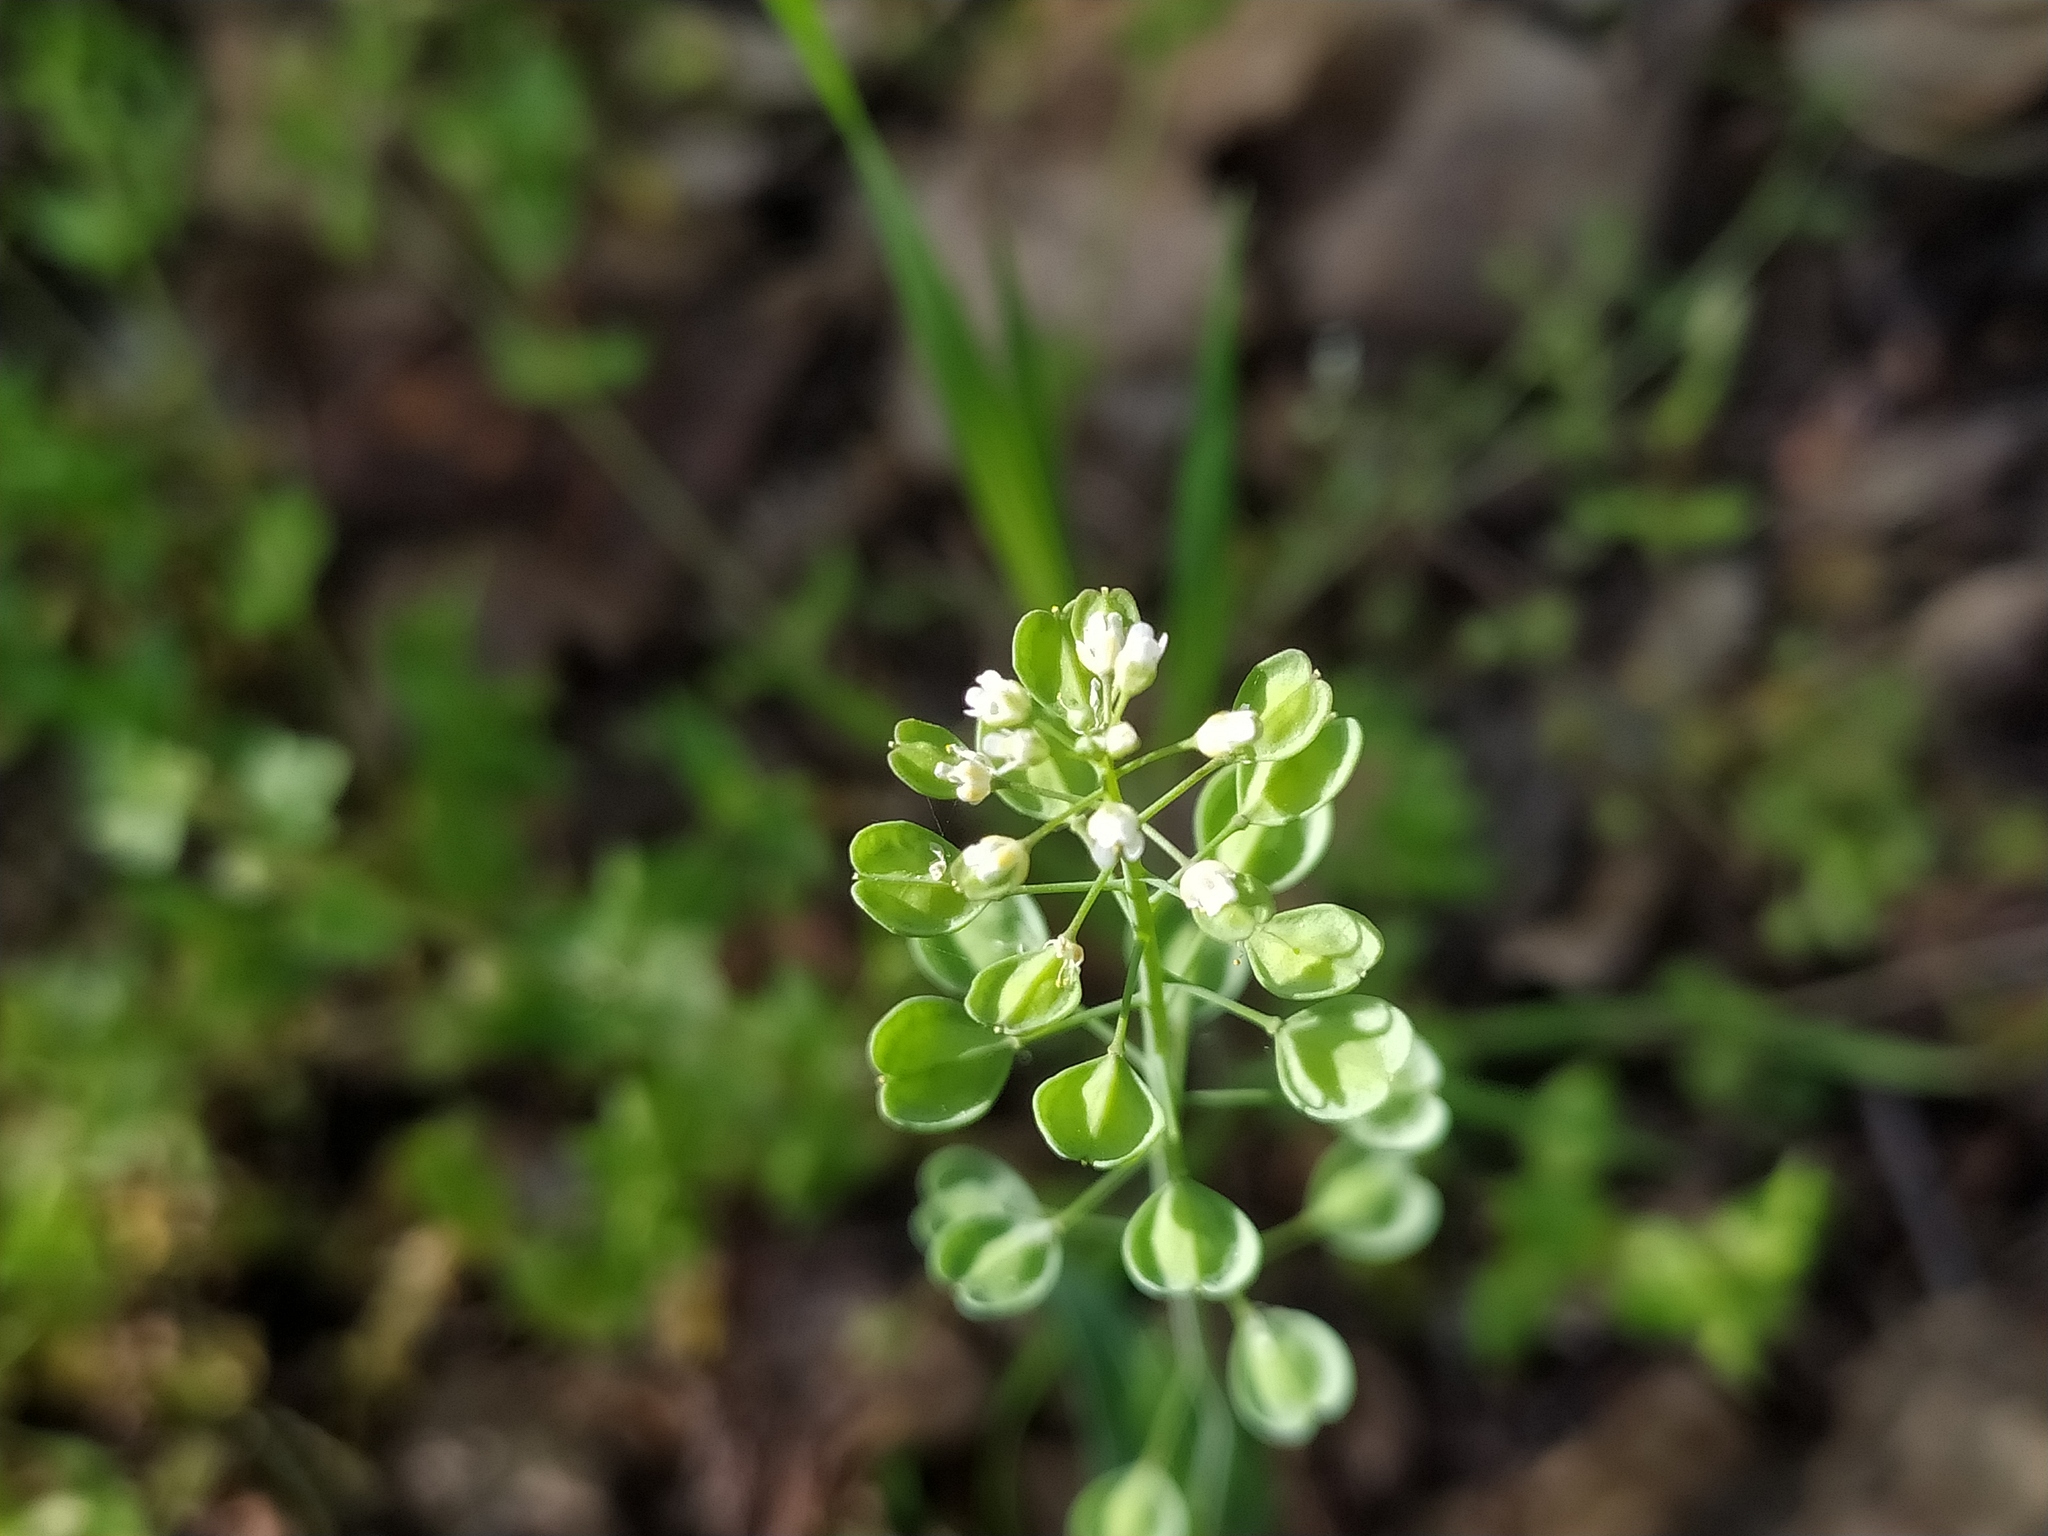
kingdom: Plantae
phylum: Tracheophyta
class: Magnoliopsida
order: Brassicales
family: Brassicaceae
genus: Noccaea
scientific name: Noccaea perfoliata
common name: Perfoliate pennycress
